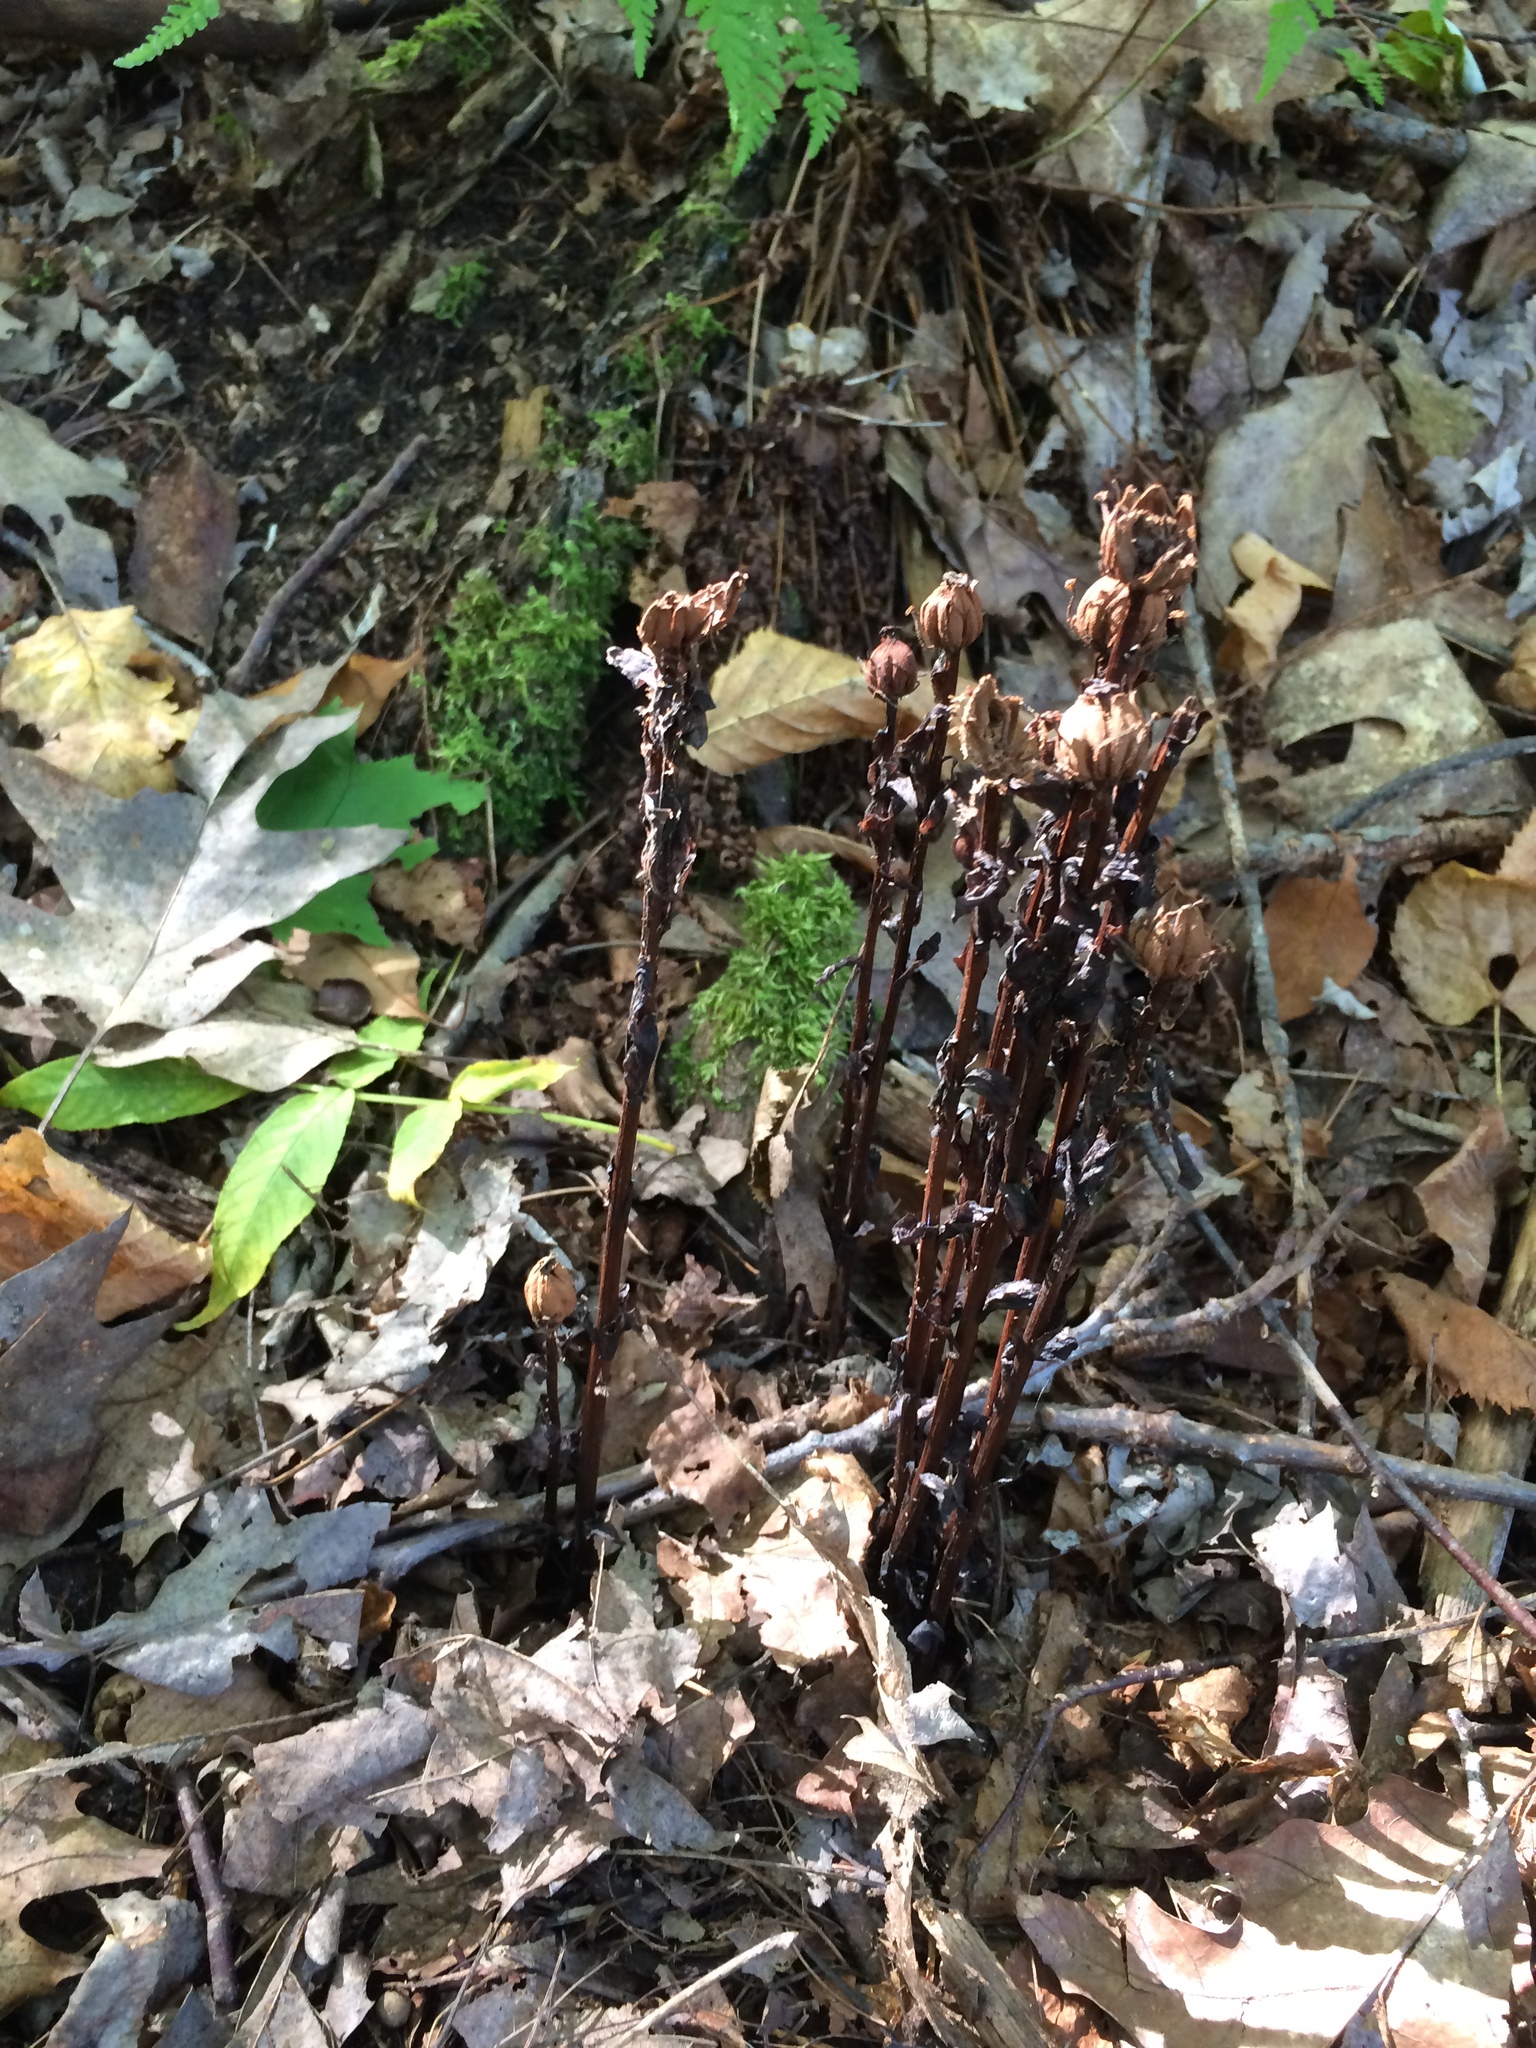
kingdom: Plantae
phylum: Tracheophyta
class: Magnoliopsida
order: Ericales
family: Ericaceae
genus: Monotropa
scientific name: Monotropa uniflora
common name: Convulsion root
